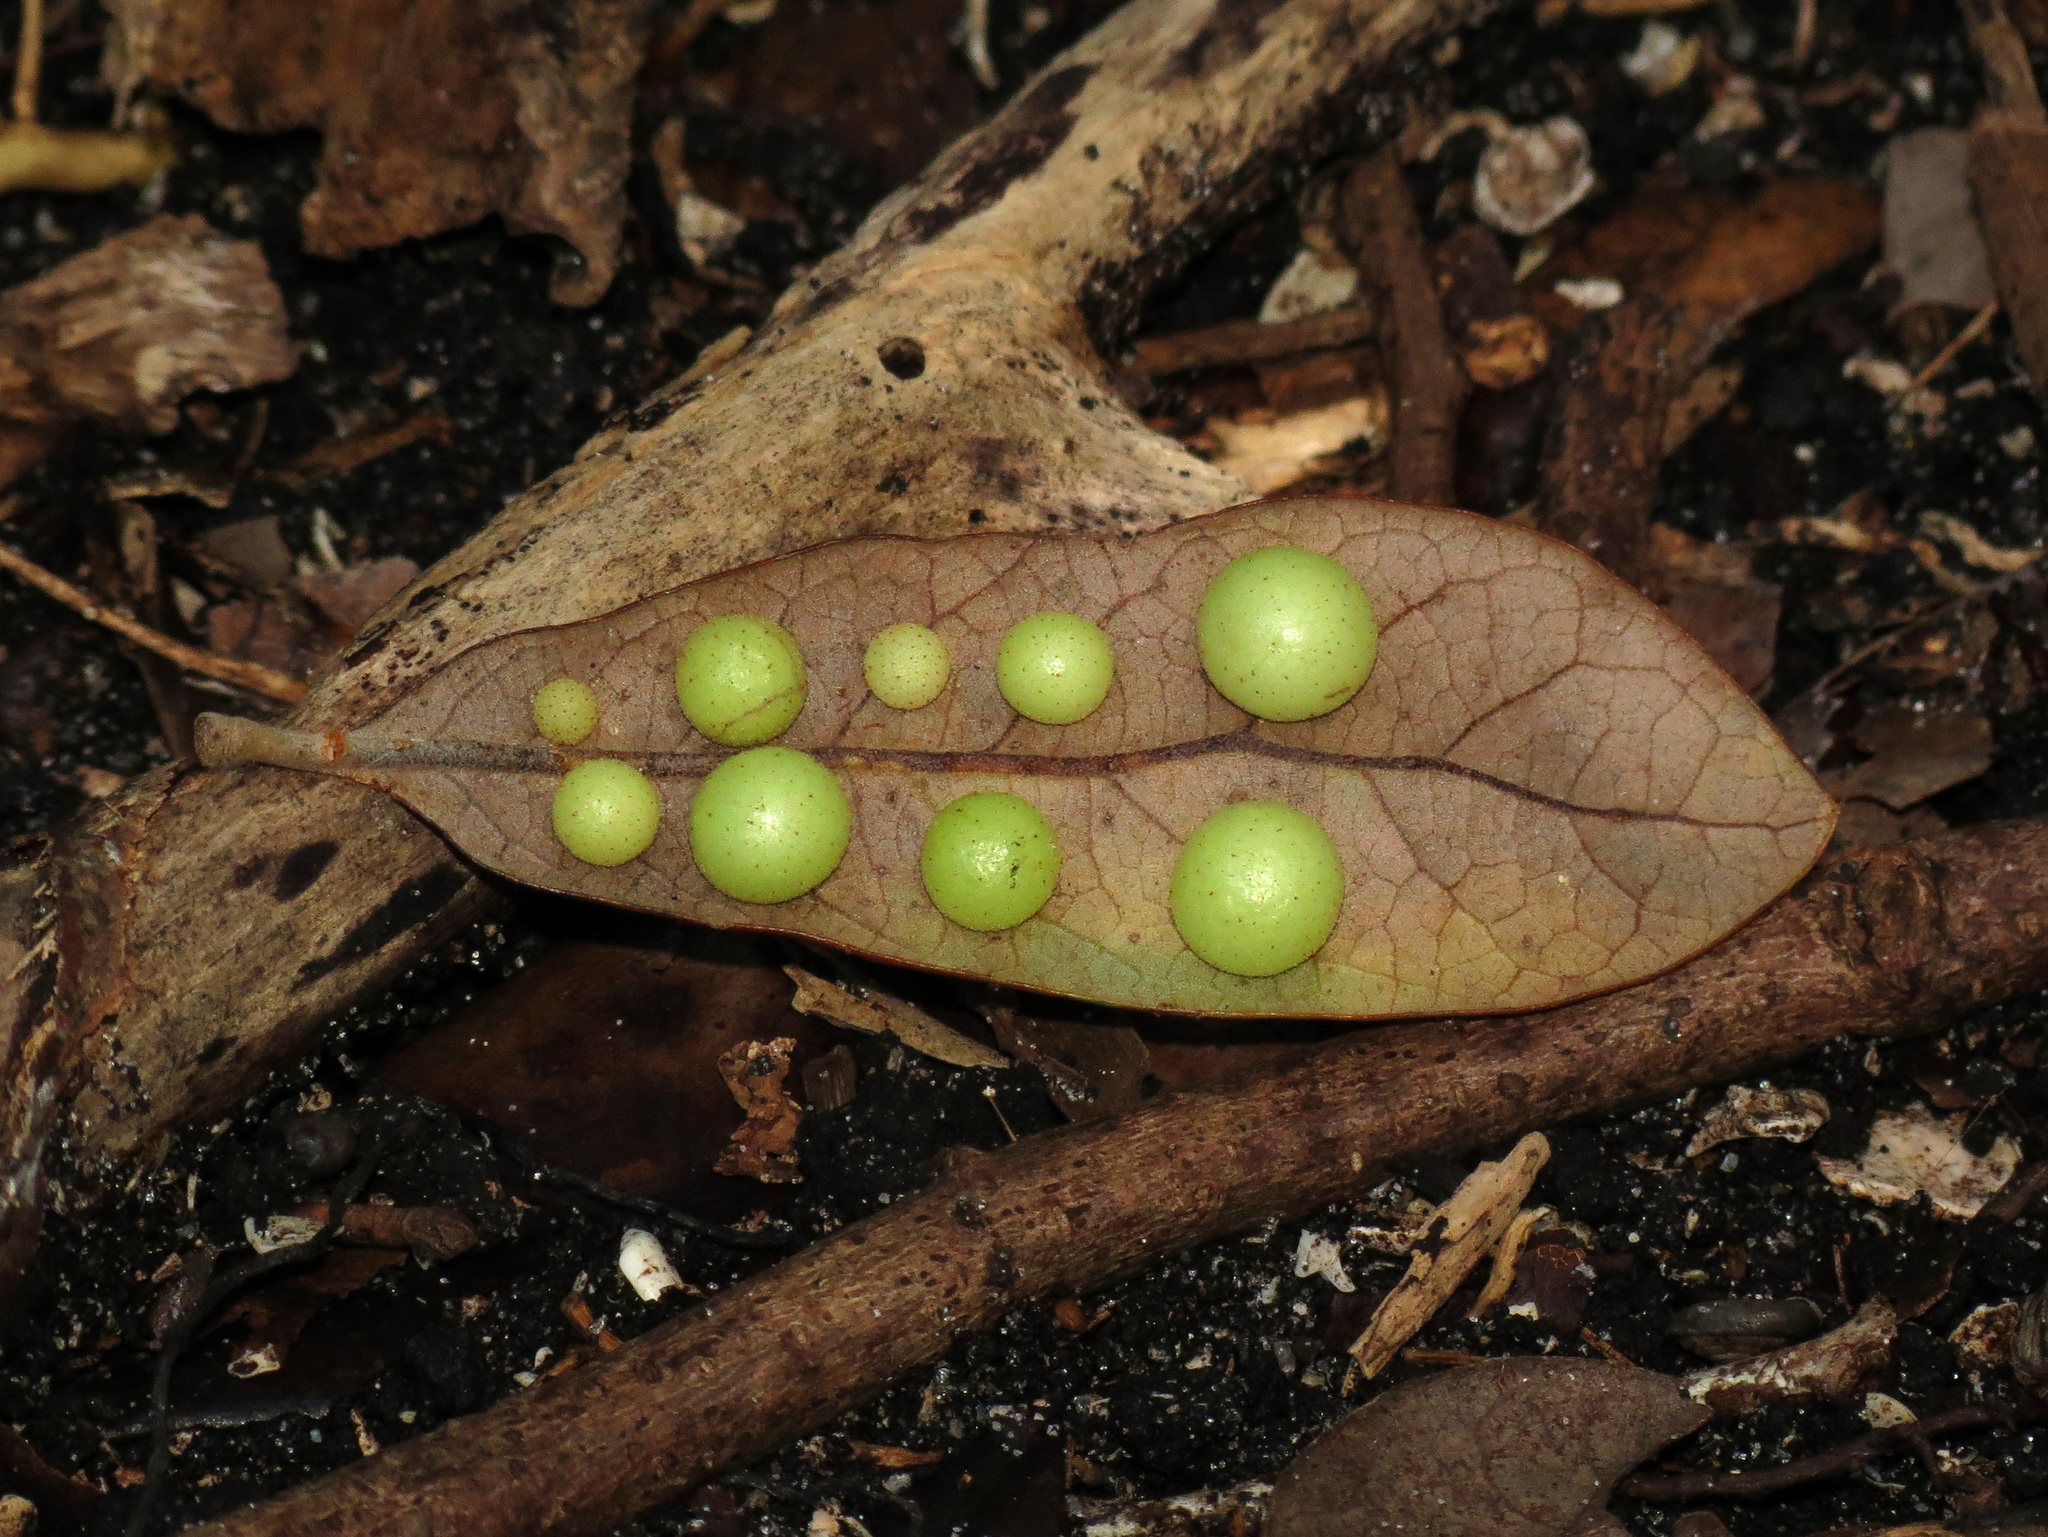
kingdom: Animalia
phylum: Arthropoda
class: Insecta
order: Hymenoptera
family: Cynipidae
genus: Belonocnema
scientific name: Belonocnema treatae
